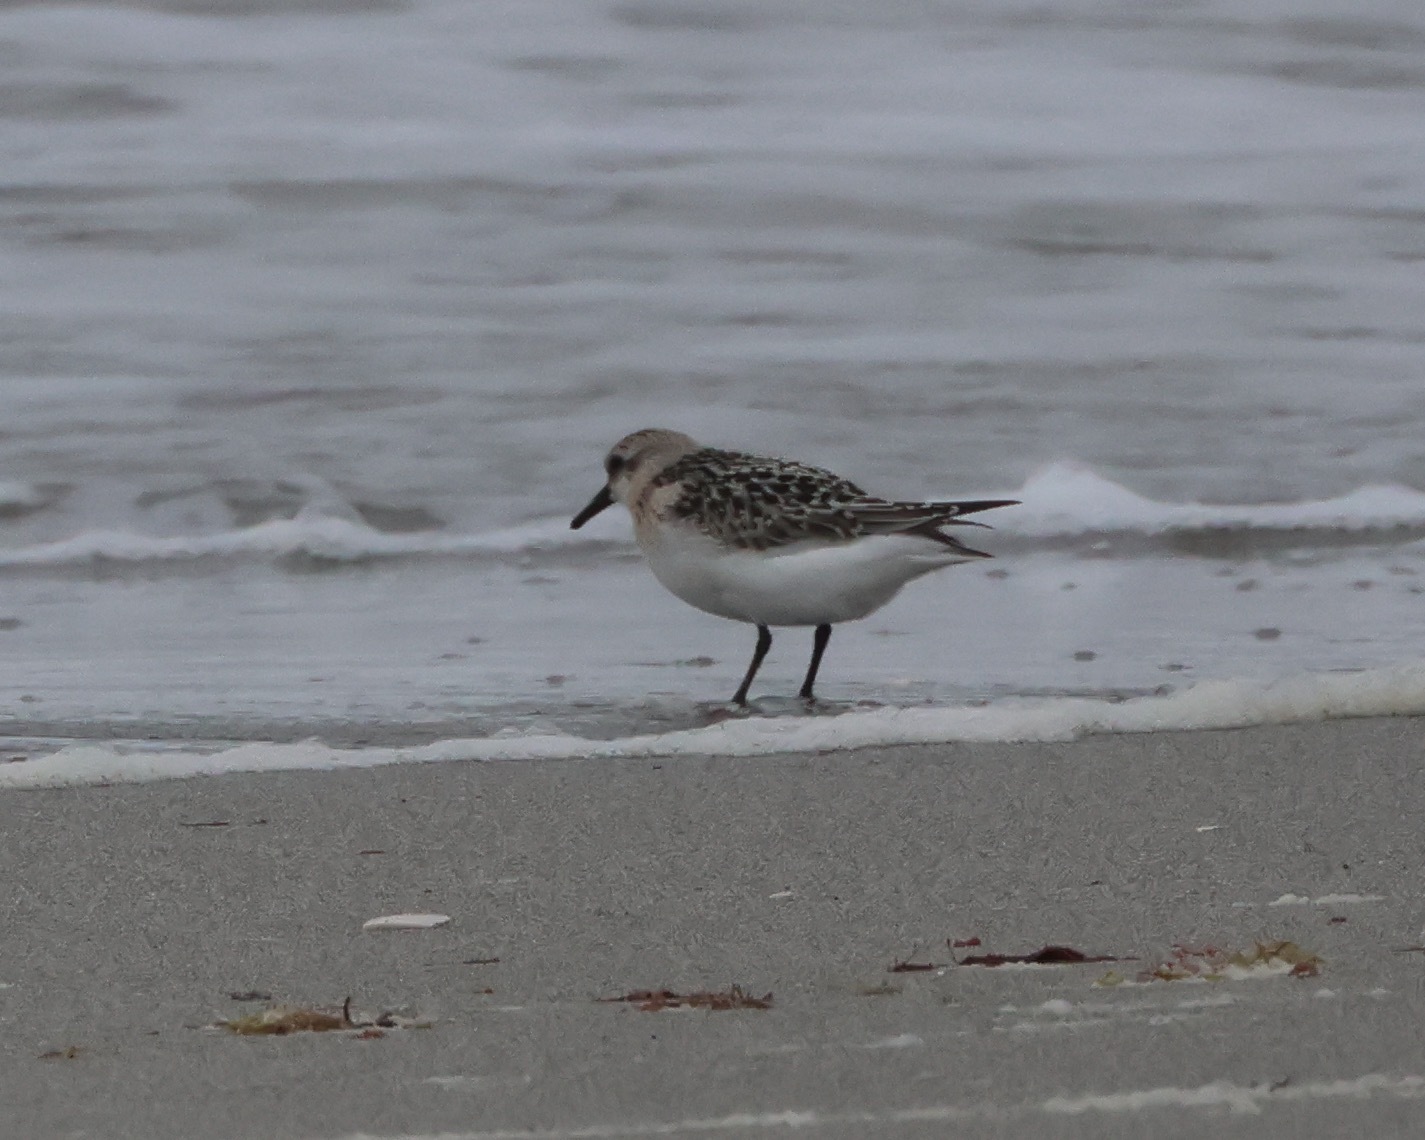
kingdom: Animalia
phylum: Chordata
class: Aves
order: Charadriiformes
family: Scolopacidae
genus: Calidris
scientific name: Calidris alba
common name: Sanderling
